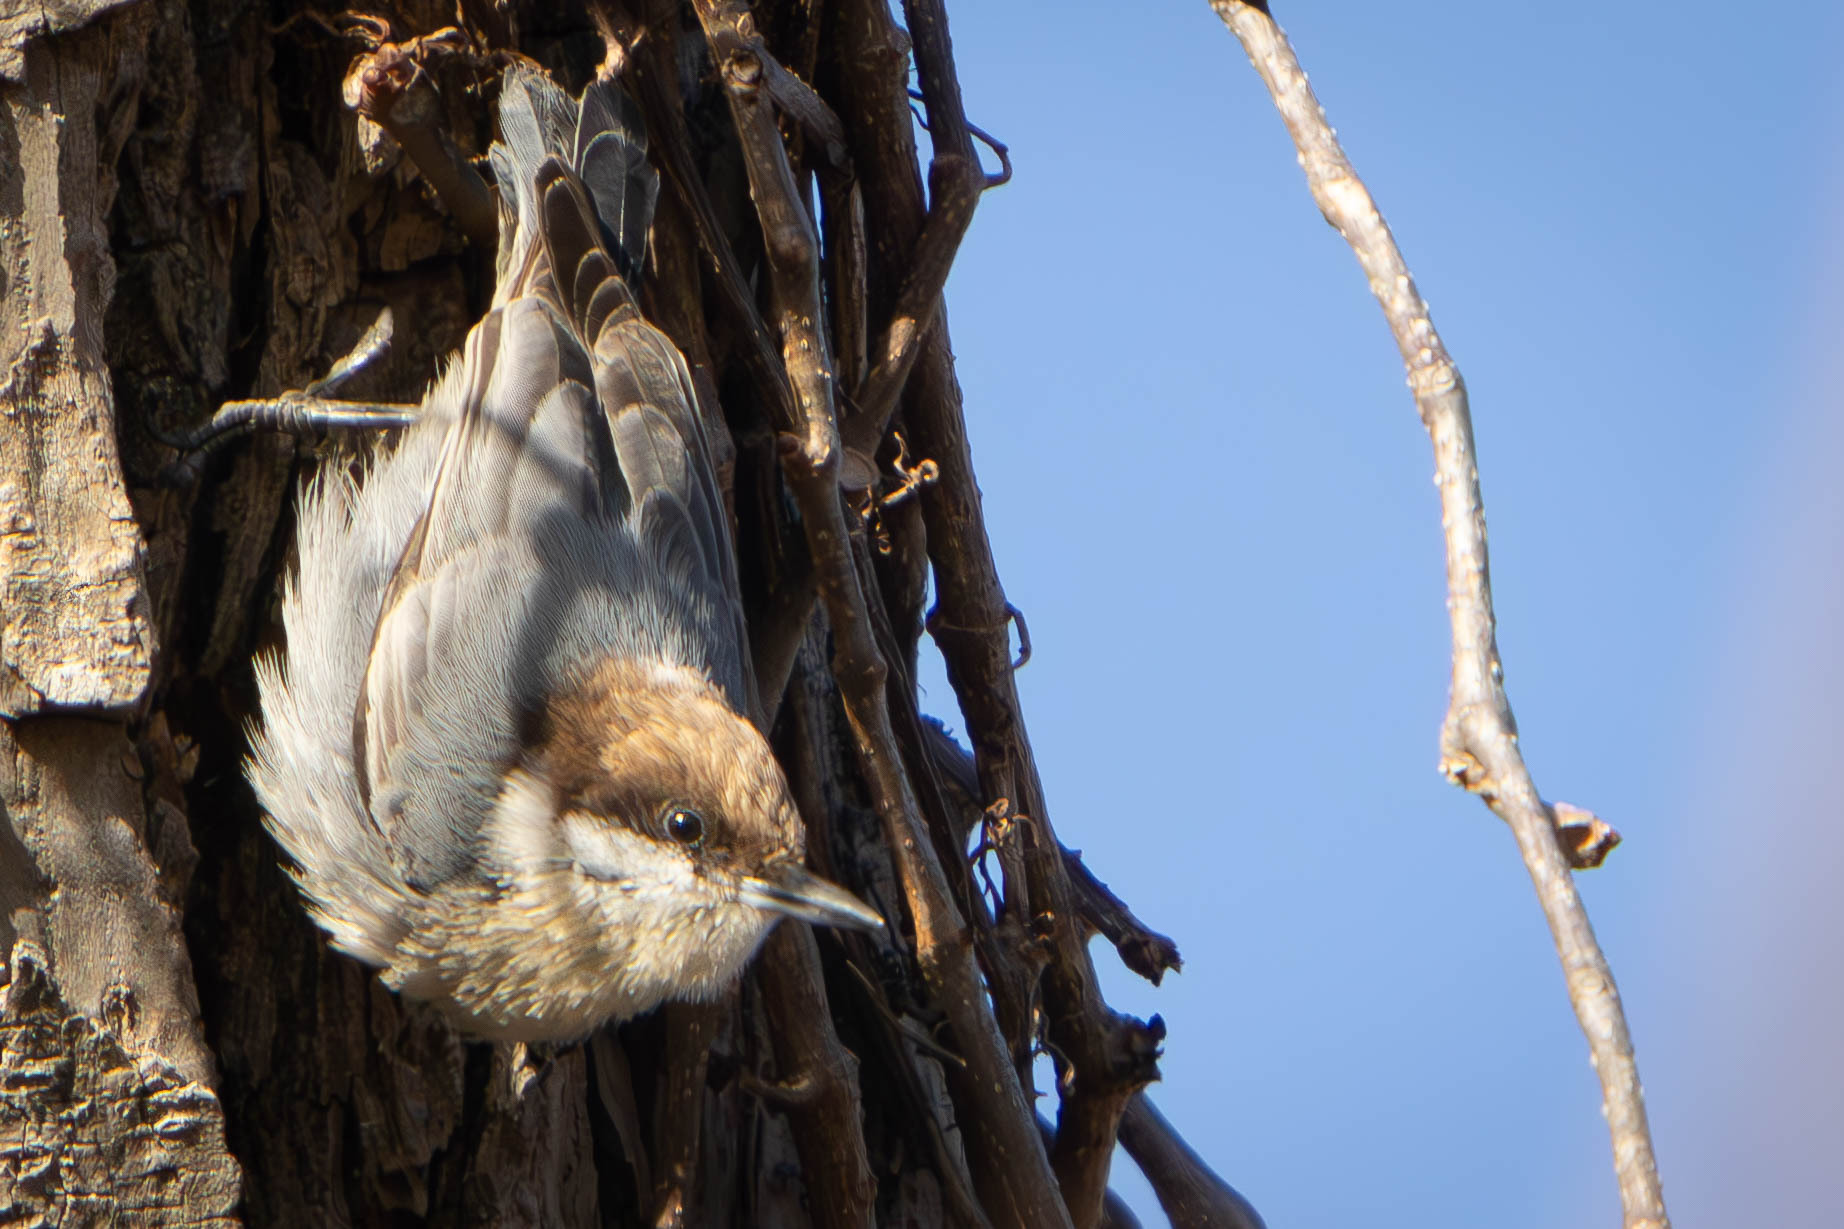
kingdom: Animalia
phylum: Chordata
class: Aves
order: Passeriformes
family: Sittidae
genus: Sitta
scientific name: Sitta pusilla
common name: Brown-headed nuthatch
